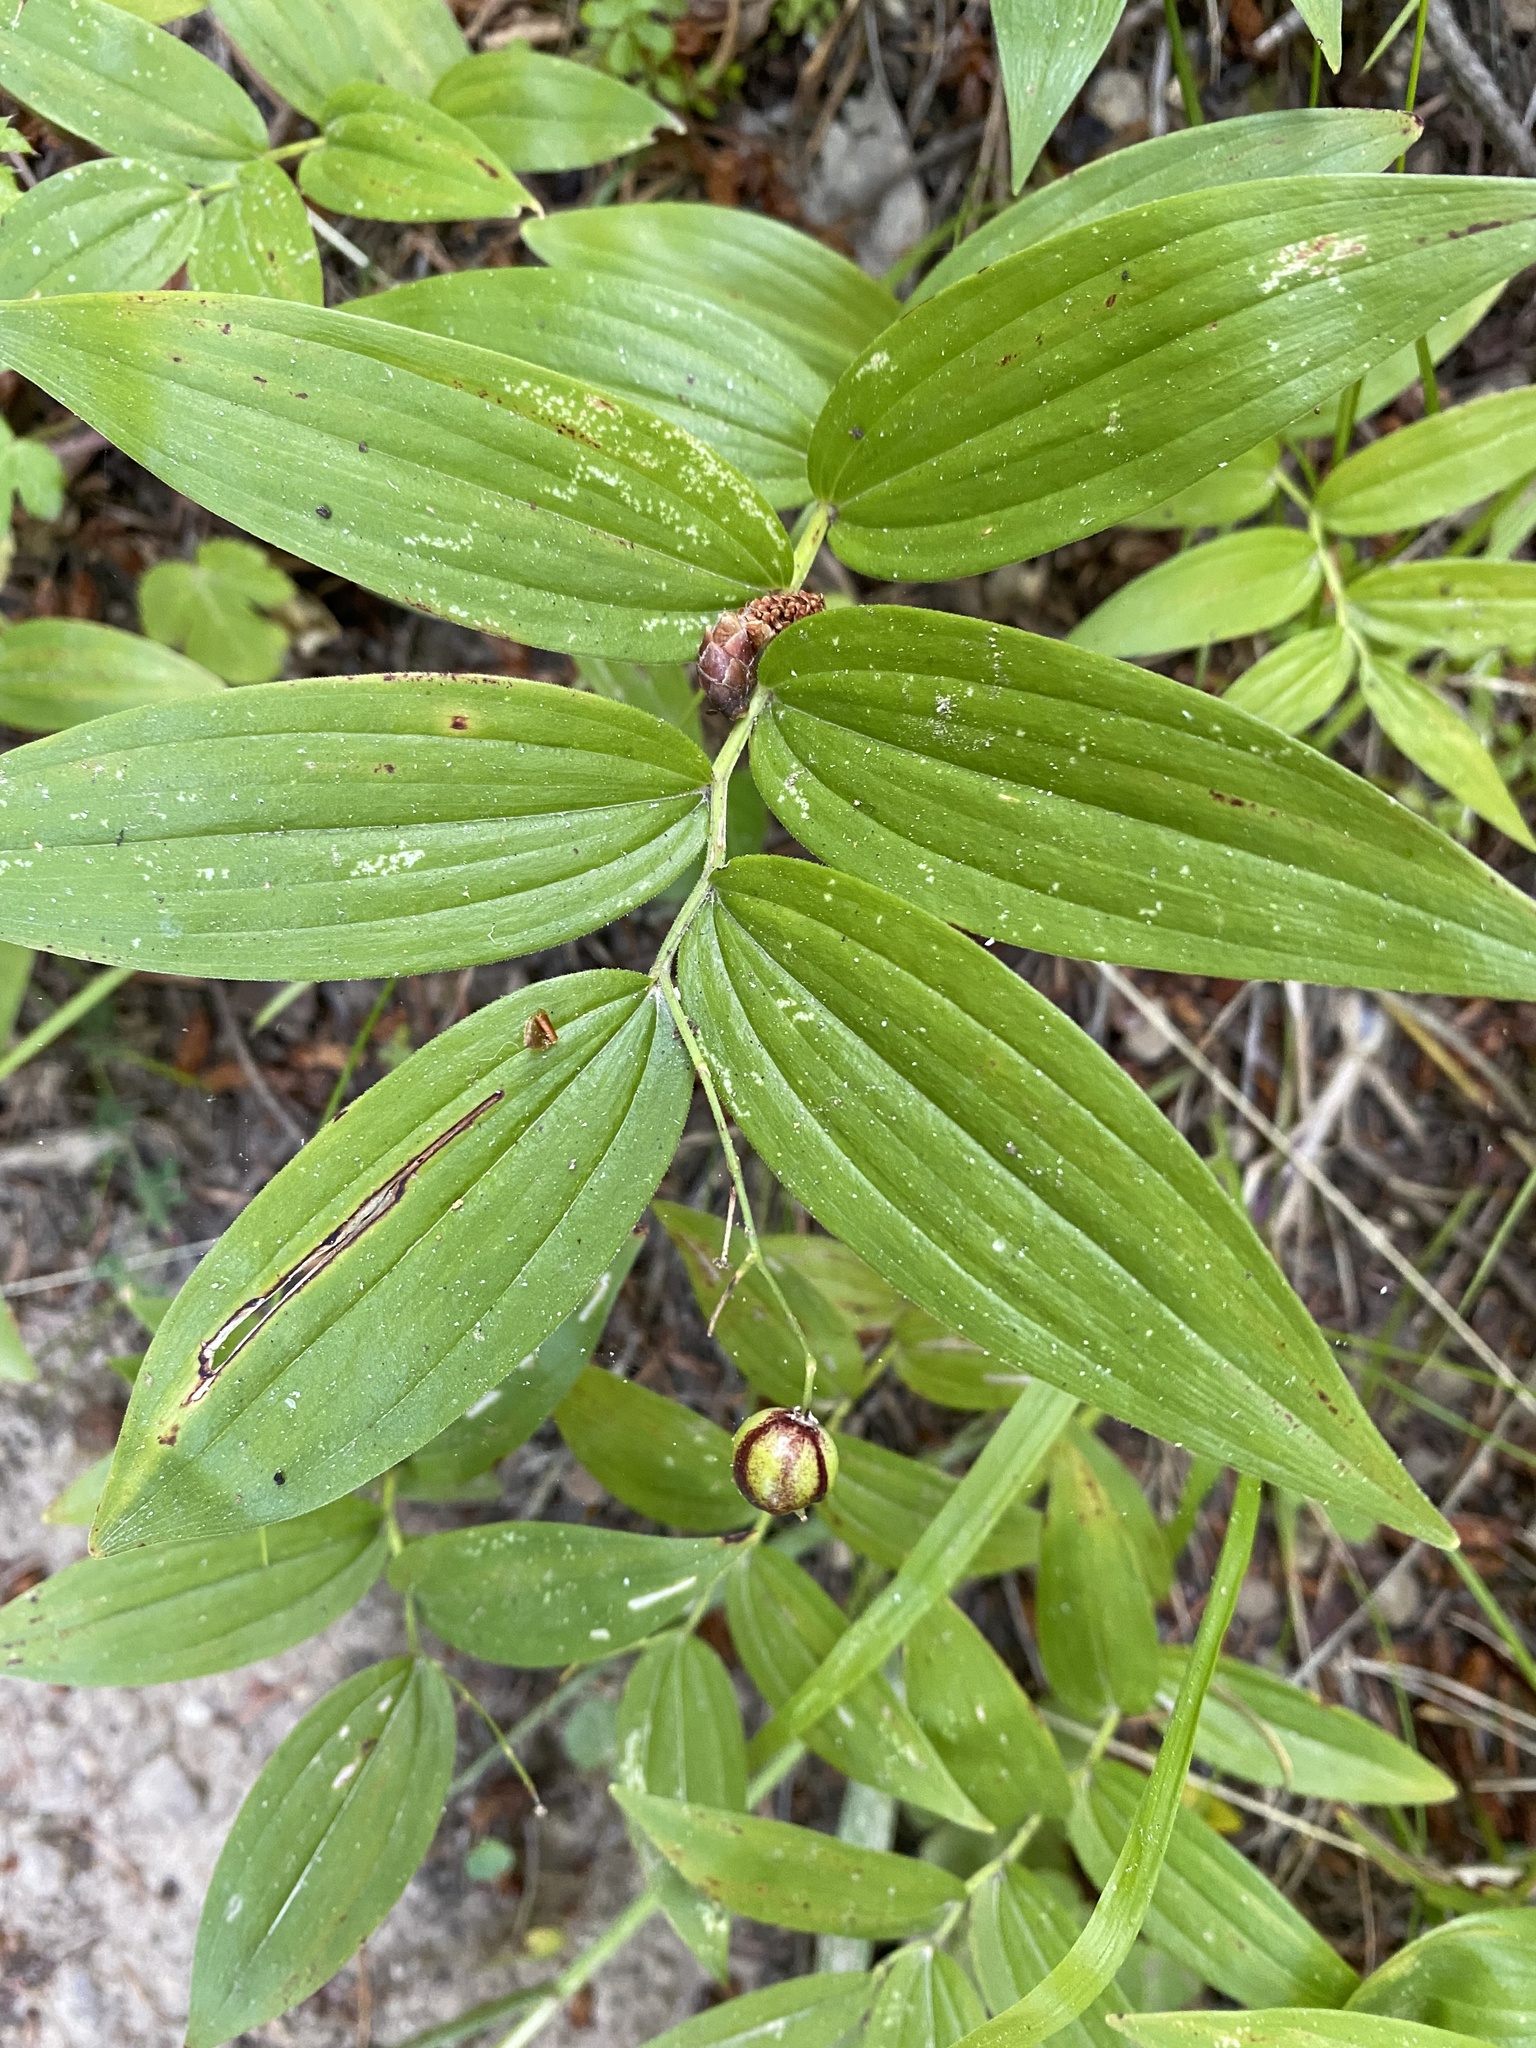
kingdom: Plantae
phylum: Tracheophyta
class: Liliopsida
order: Asparagales
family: Asparagaceae
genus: Maianthemum
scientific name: Maianthemum stellatum
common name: Little false solomon's seal
